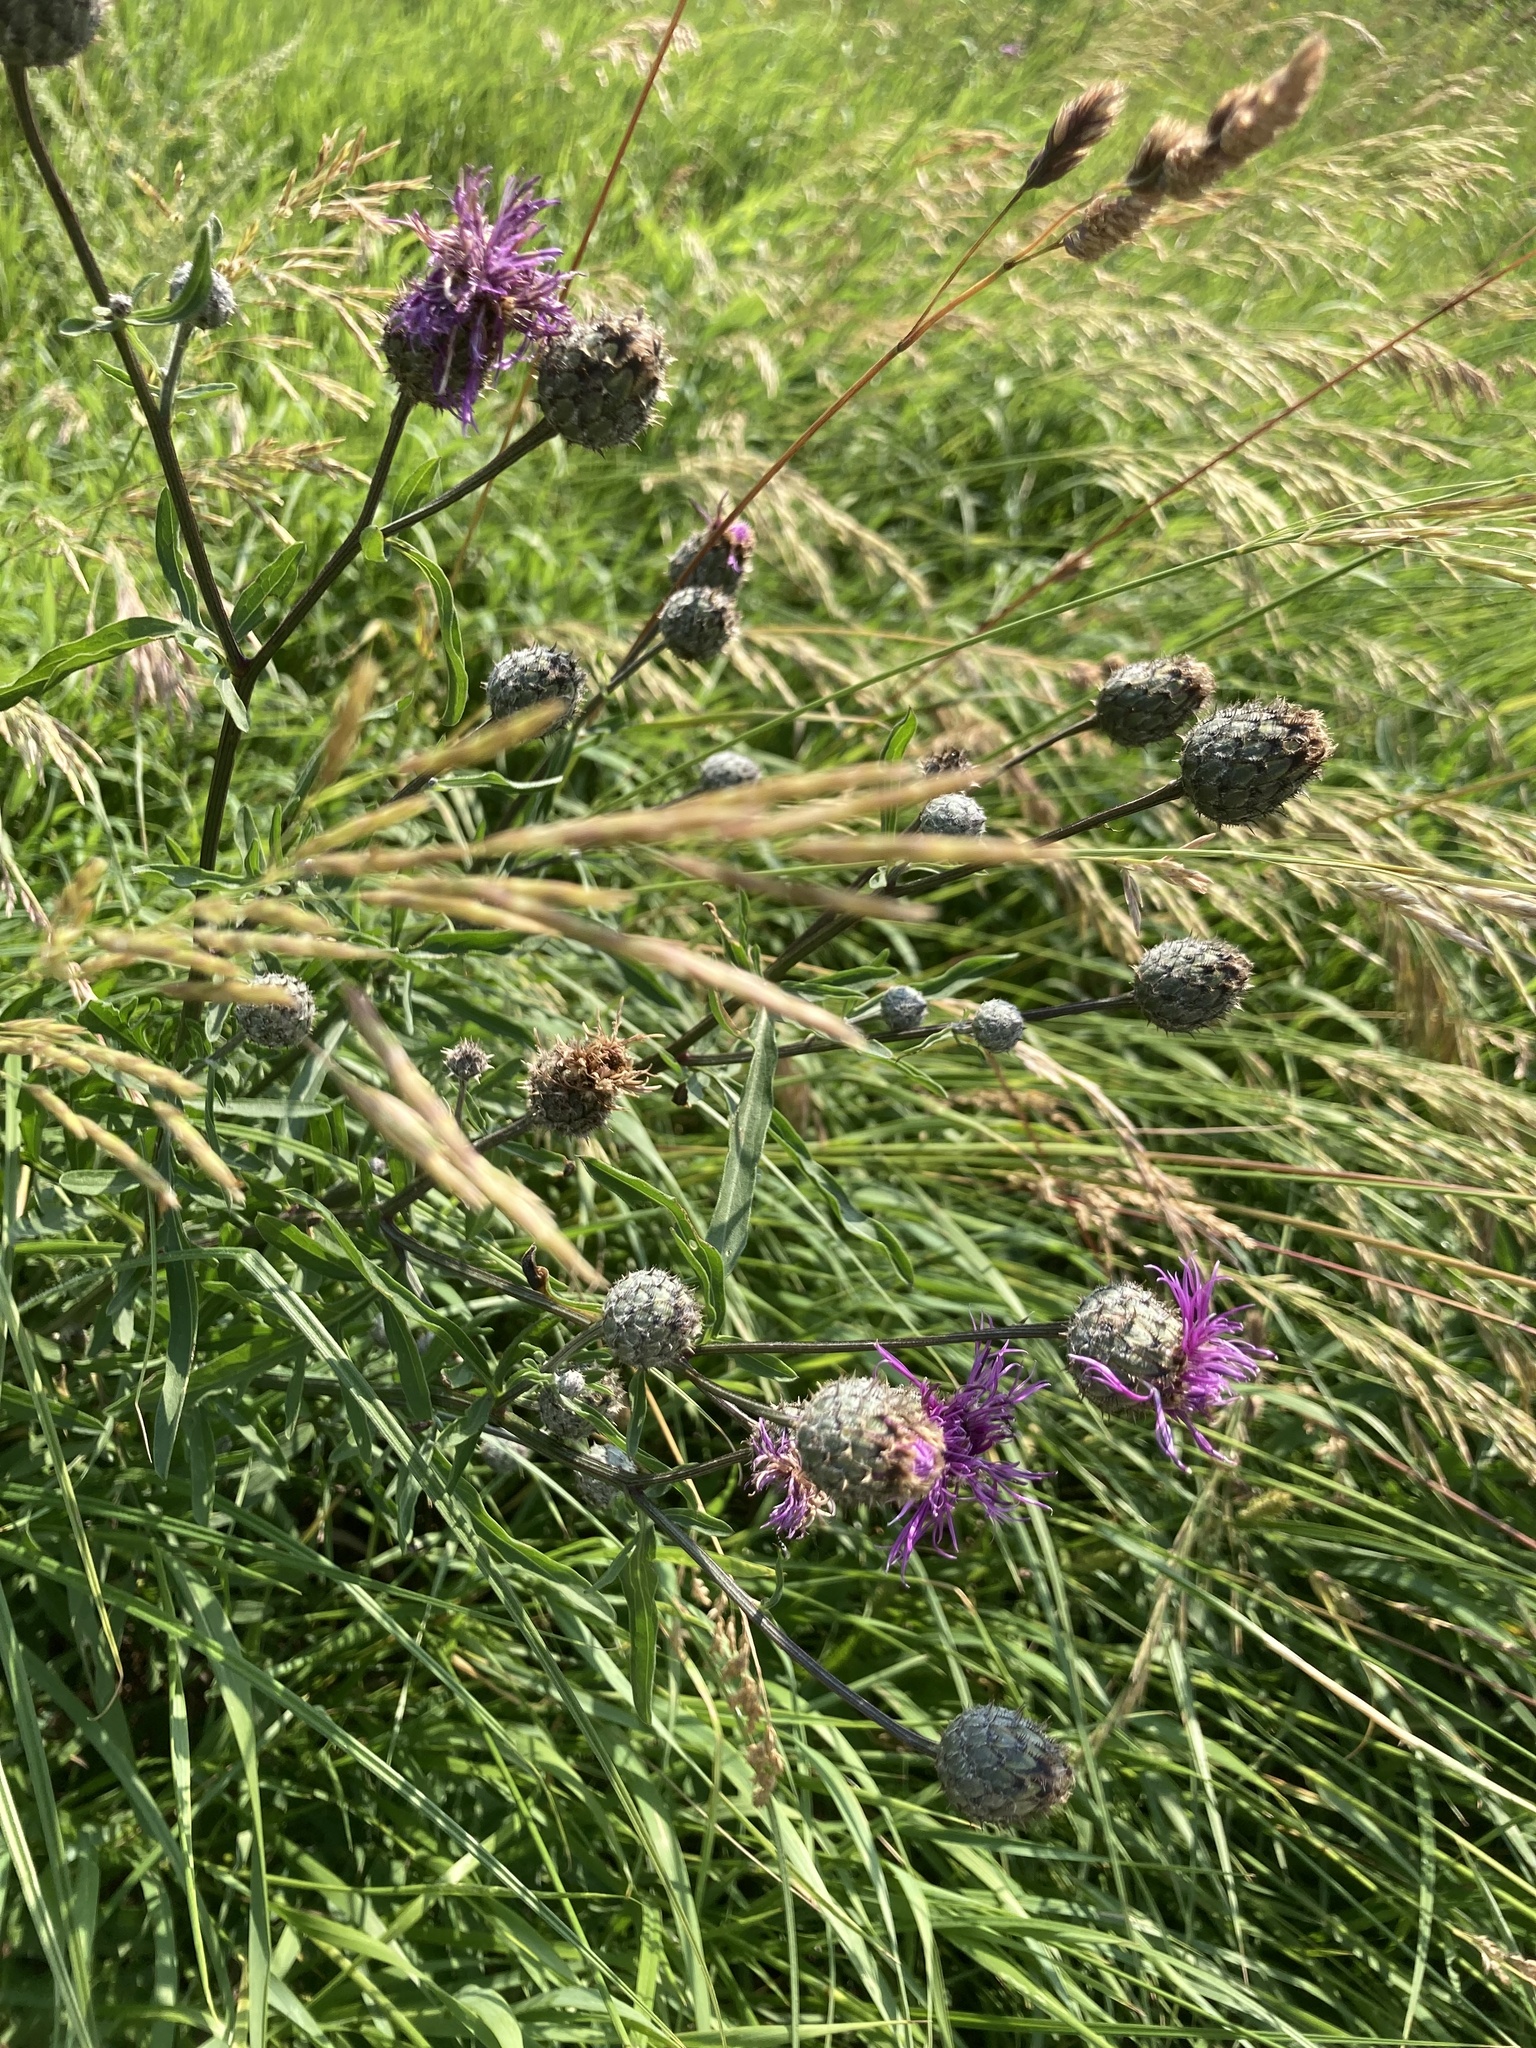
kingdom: Plantae
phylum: Tracheophyta
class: Magnoliopsida
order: Asterales
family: Asteraceae
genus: Centaurea
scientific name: Centaurea scabiosa
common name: Greater knapweed
